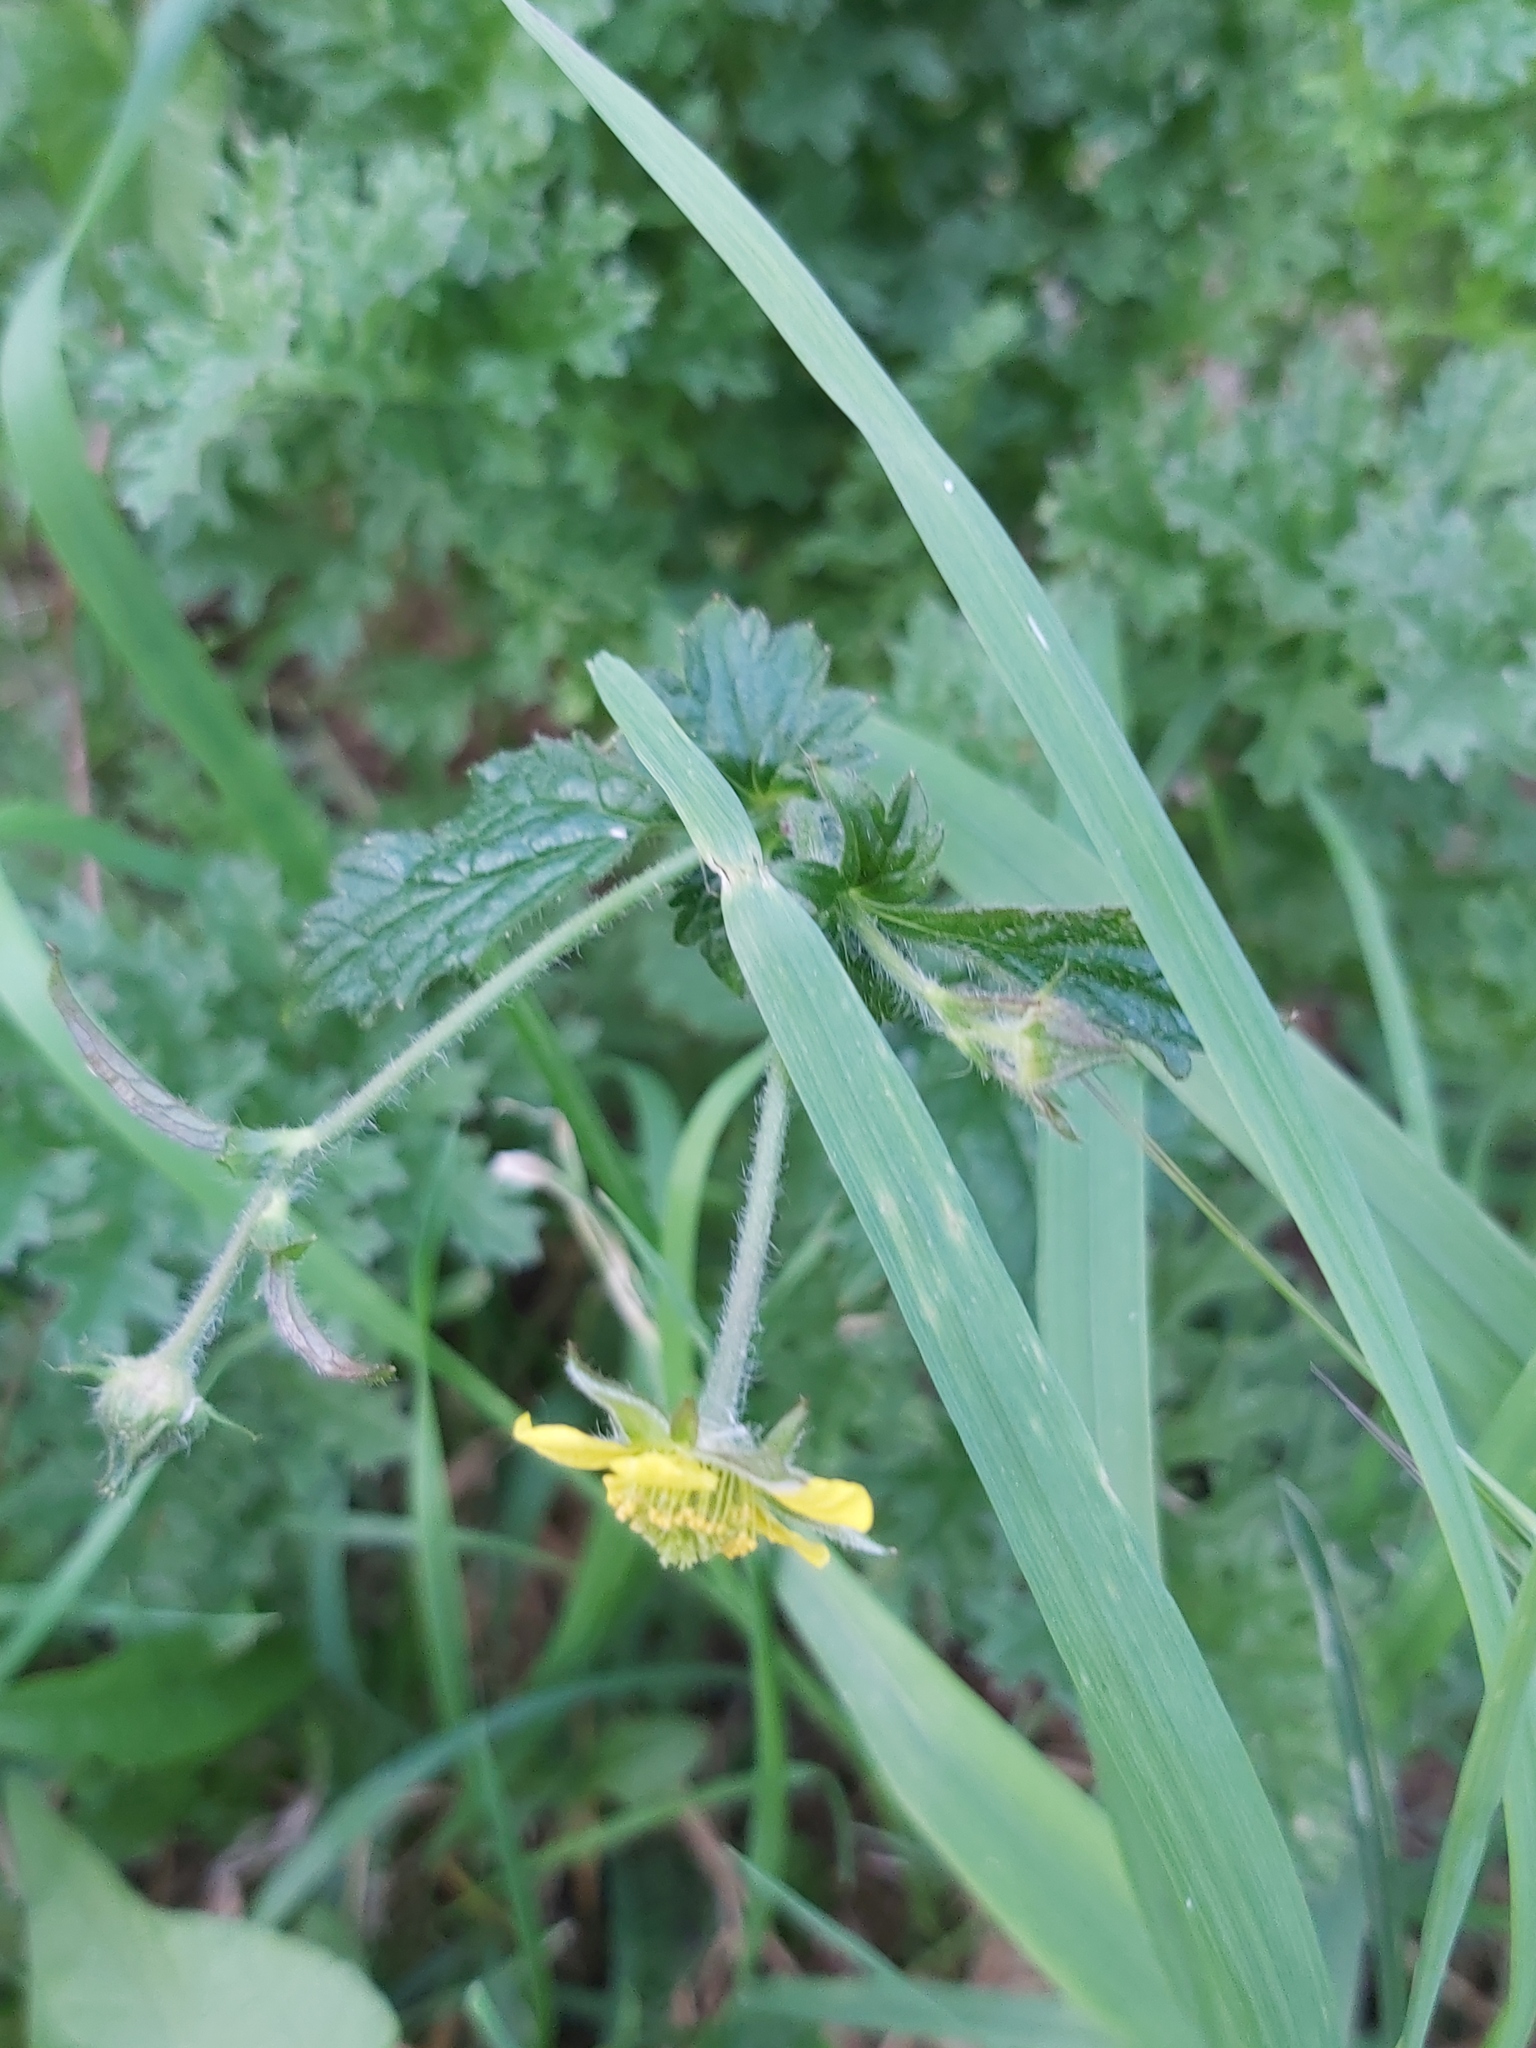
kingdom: Plantae
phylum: Tracheophyta
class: Magnoliopsida
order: Rosales
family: Rosaceae
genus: Geum
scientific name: Geum urbanum
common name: Wood avens
